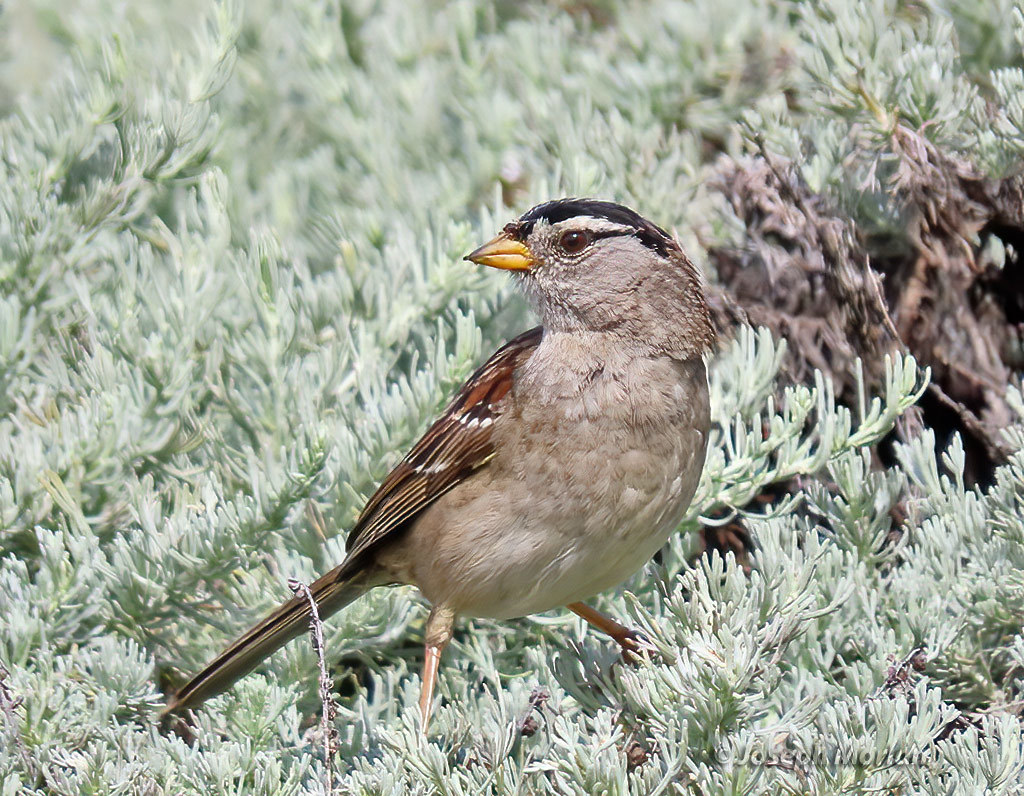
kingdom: Animalia
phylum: Chordata
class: Aves
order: Passeriformes
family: Passerellidae
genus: Zonotrichia
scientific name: Zonotrichia leucophrys
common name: White-crowned sparrow
